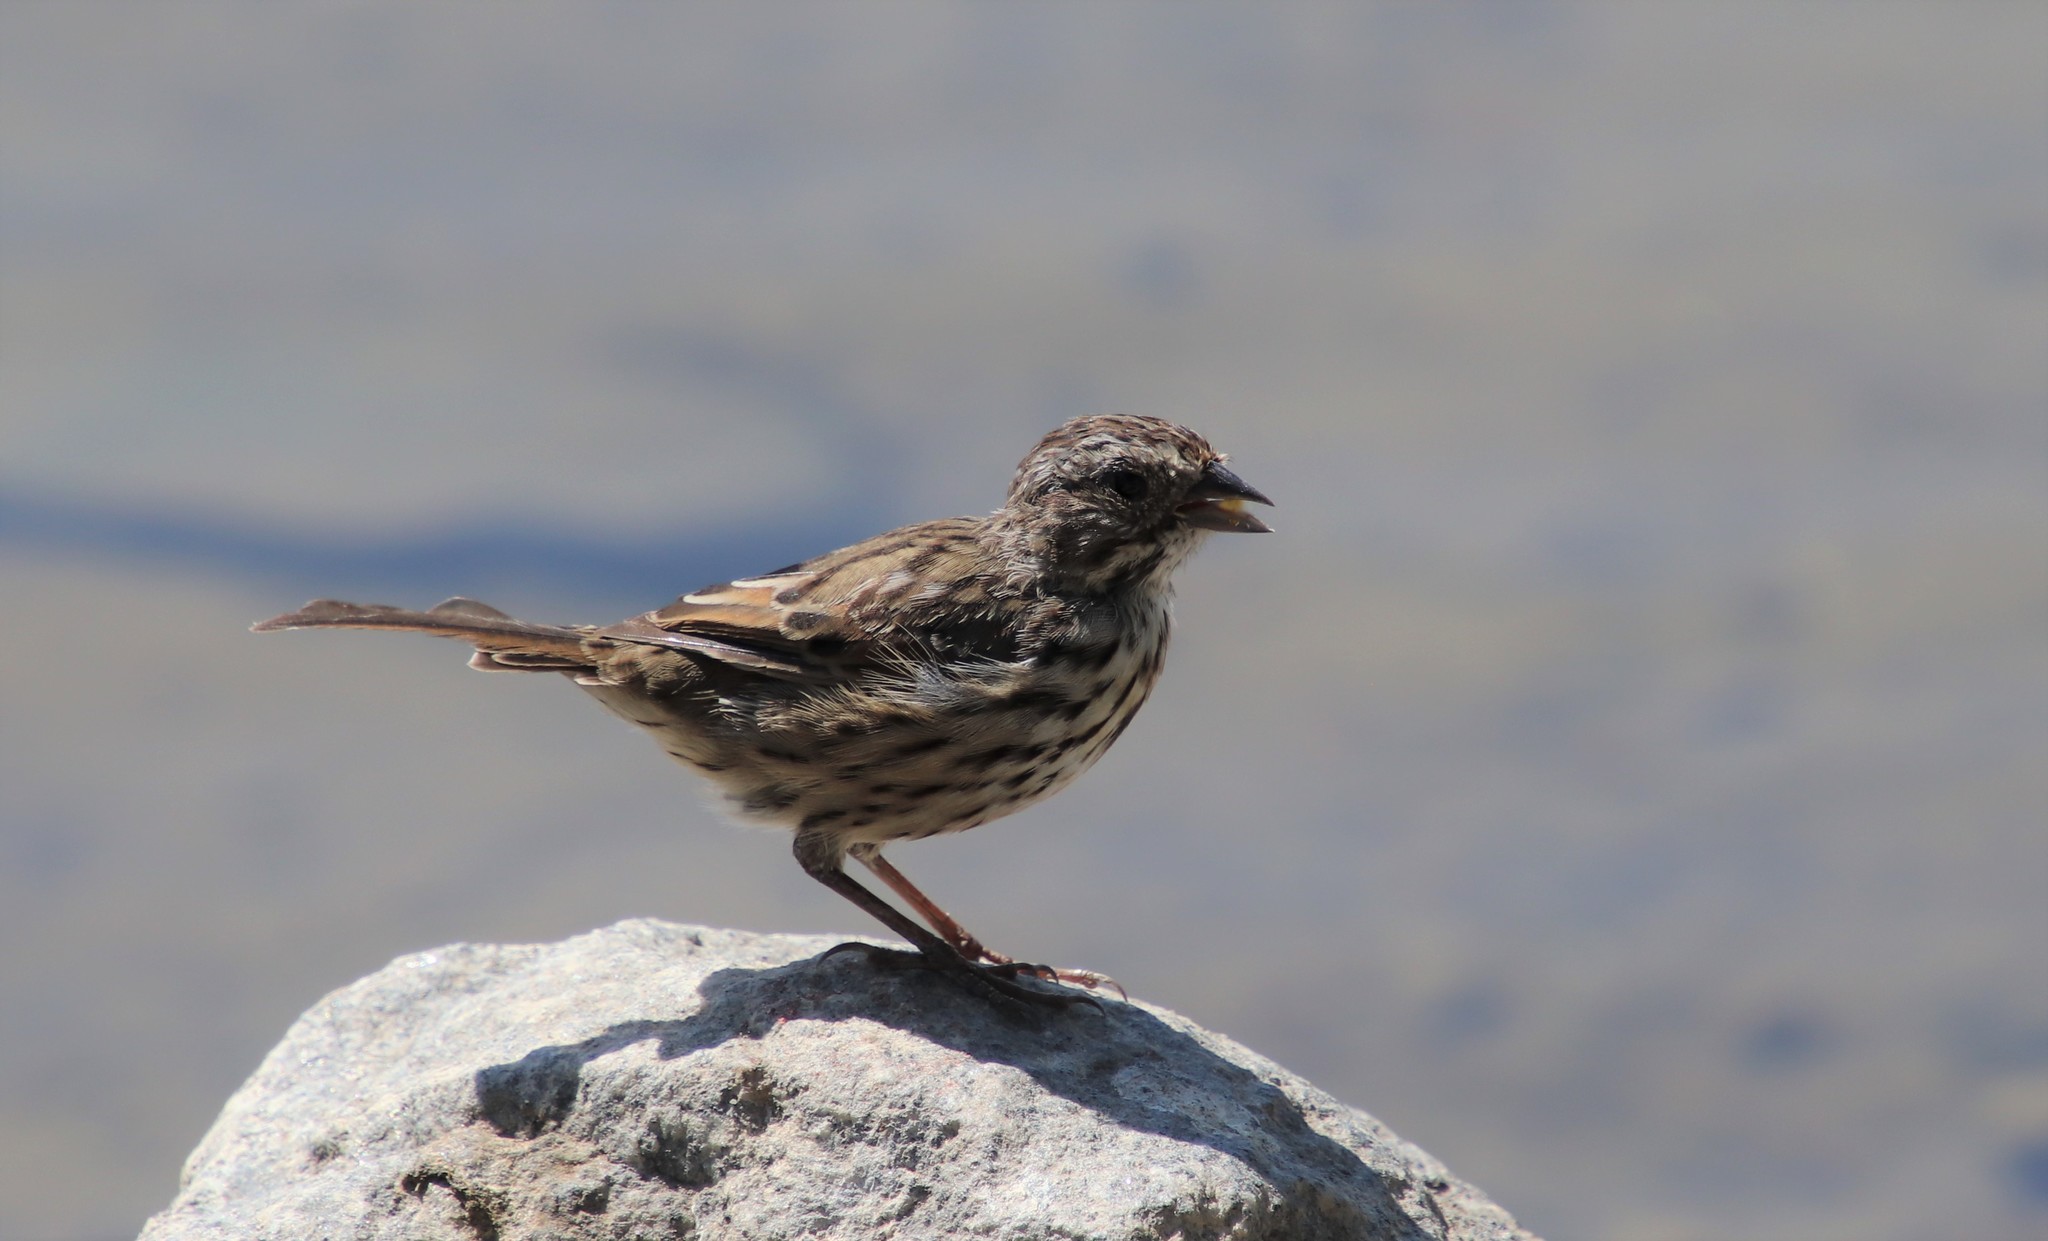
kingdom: Animalia
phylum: Chordata
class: Aves
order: Passeriformes
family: Passerellidae
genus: Melospiza
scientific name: Melospiza melodia
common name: Song sparrow
